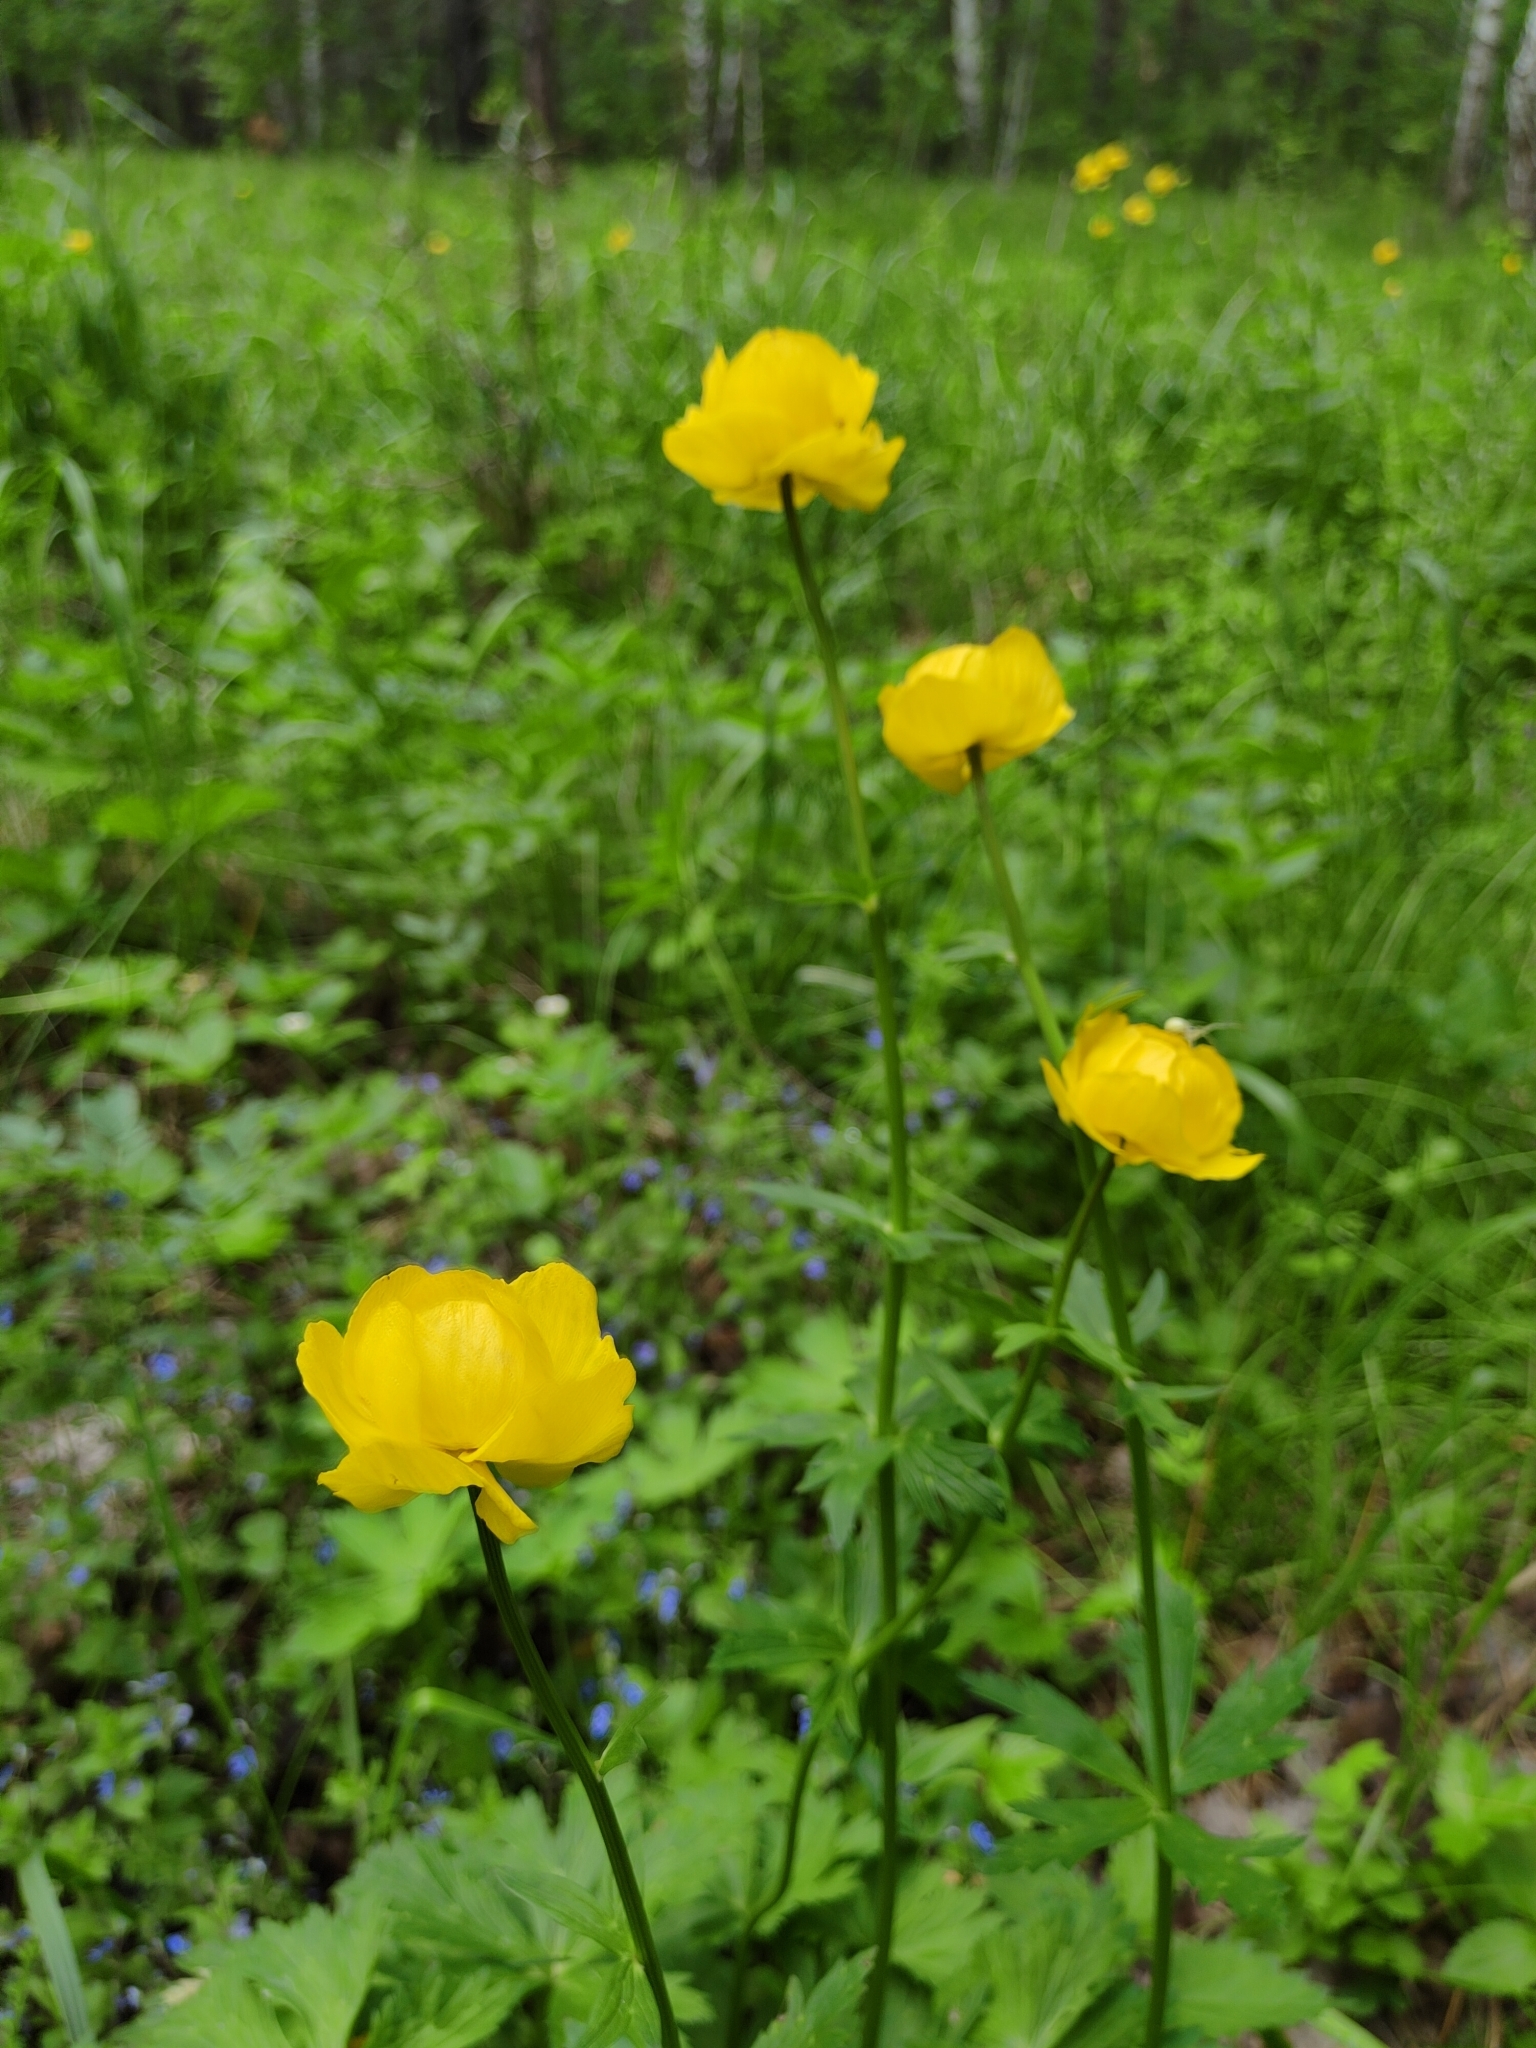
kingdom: Plantae
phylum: Tracheophyta
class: Magnoliopsida
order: Ranunculales
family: Ranunculaceae
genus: Trollius
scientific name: Trollius europaeus
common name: European globeflower
